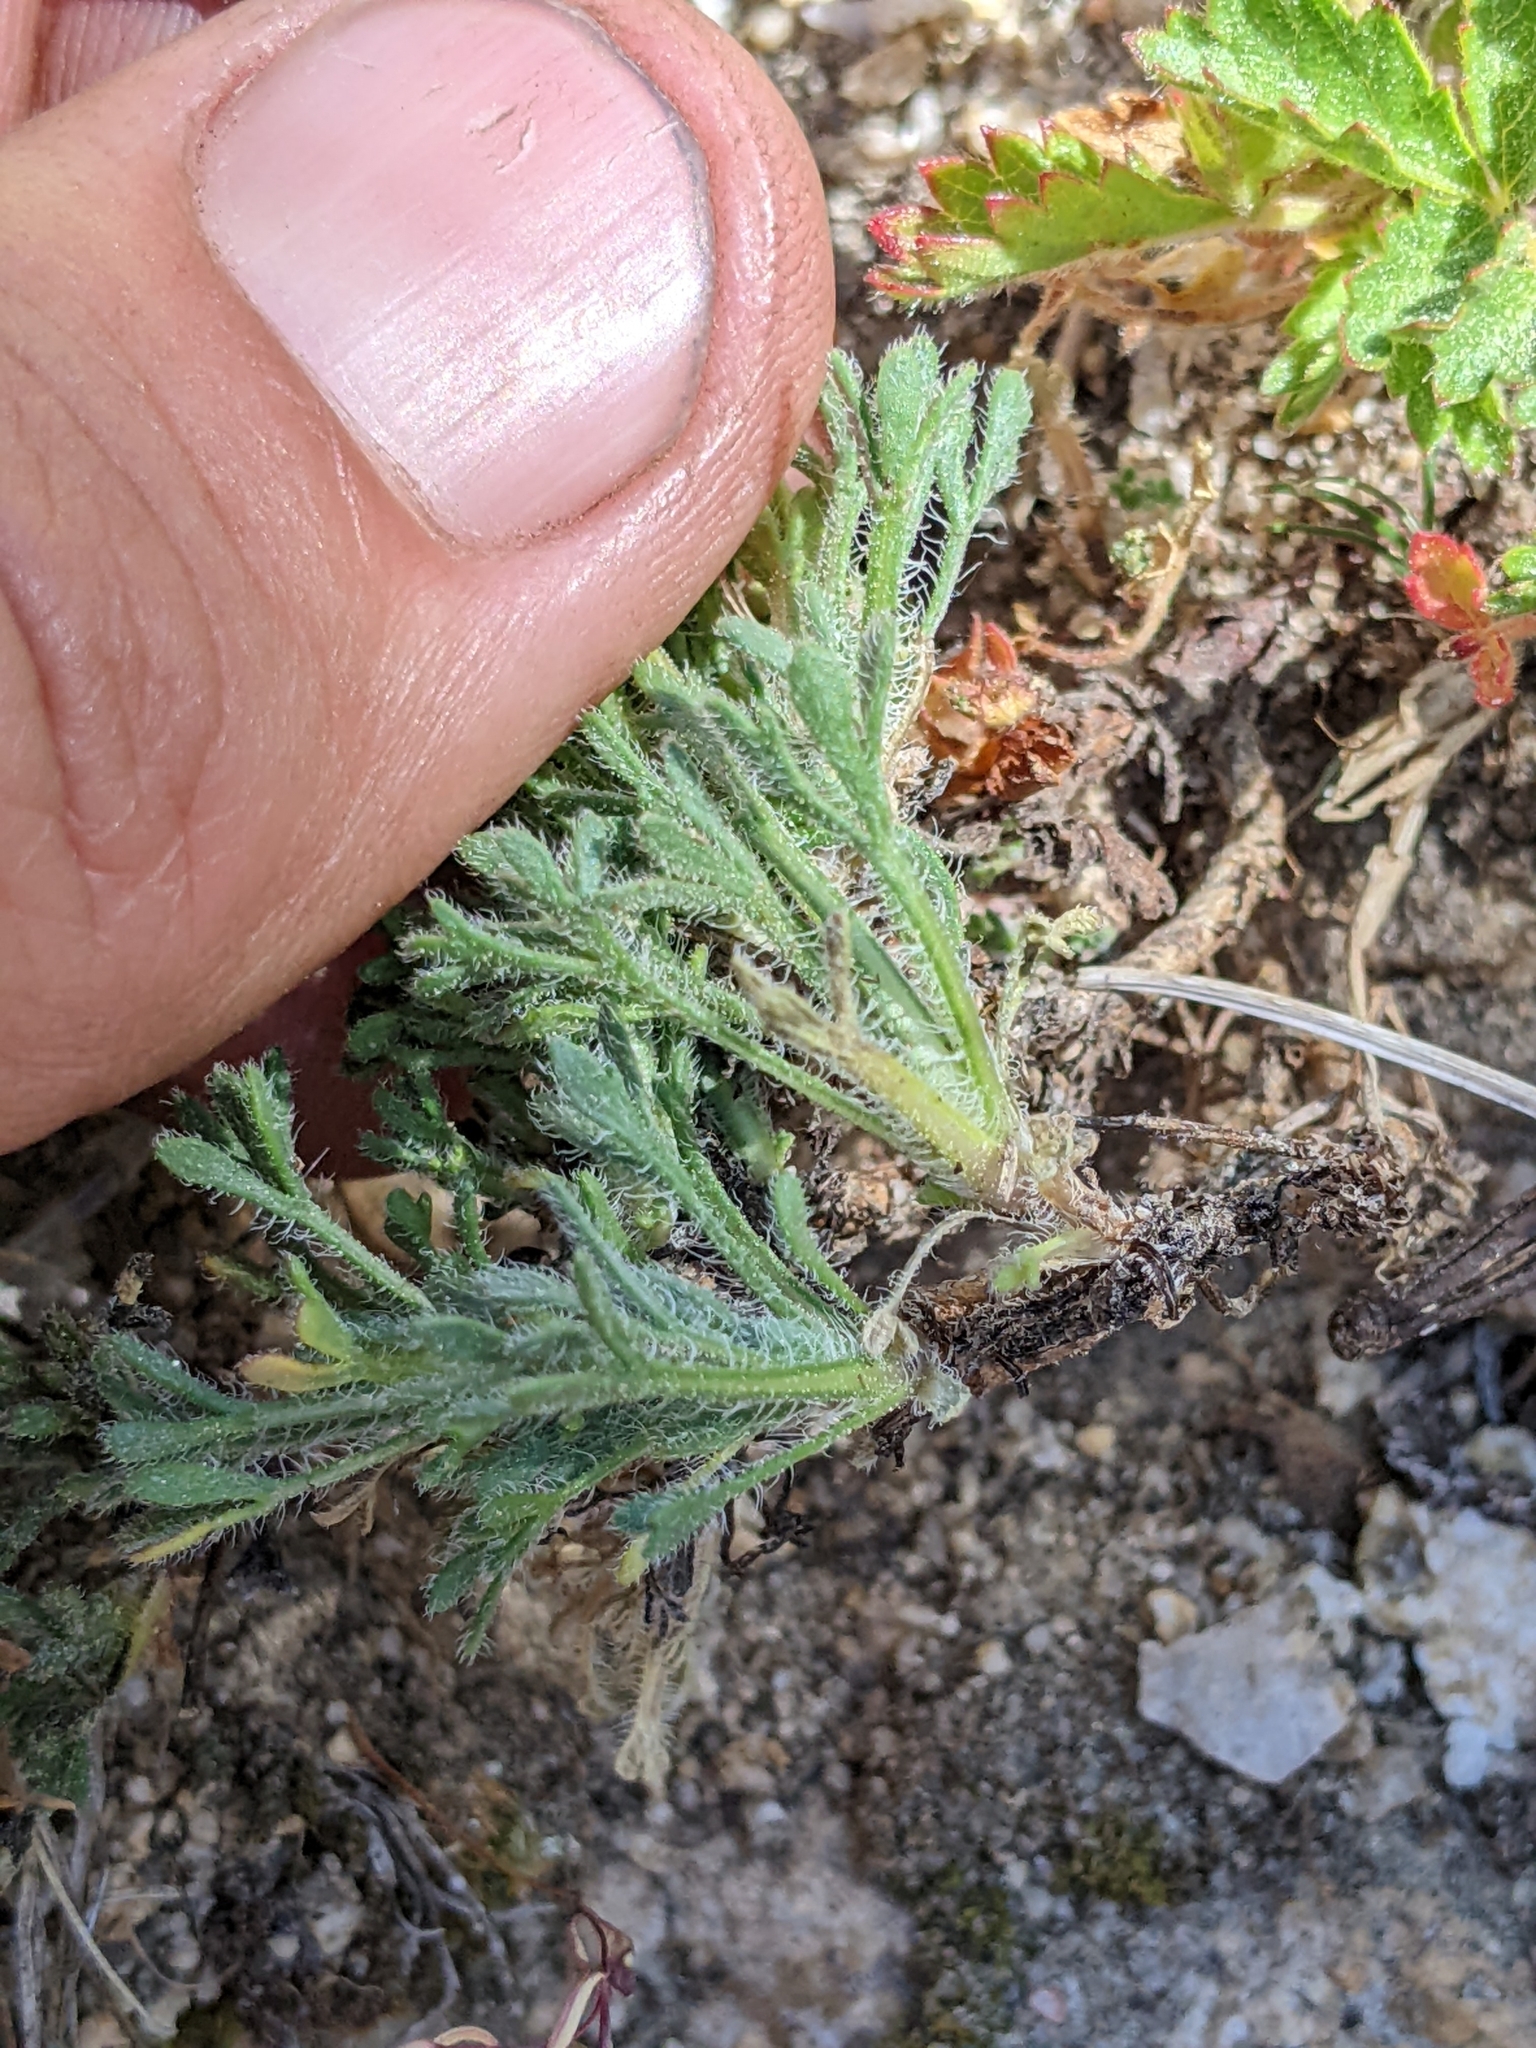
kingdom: Plantae
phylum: Tracheophyta
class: Magnoliopsida
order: Asterales
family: Asteraceae
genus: Erigeron
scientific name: Erigeron compositus
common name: Dwarf mountain fleabane
